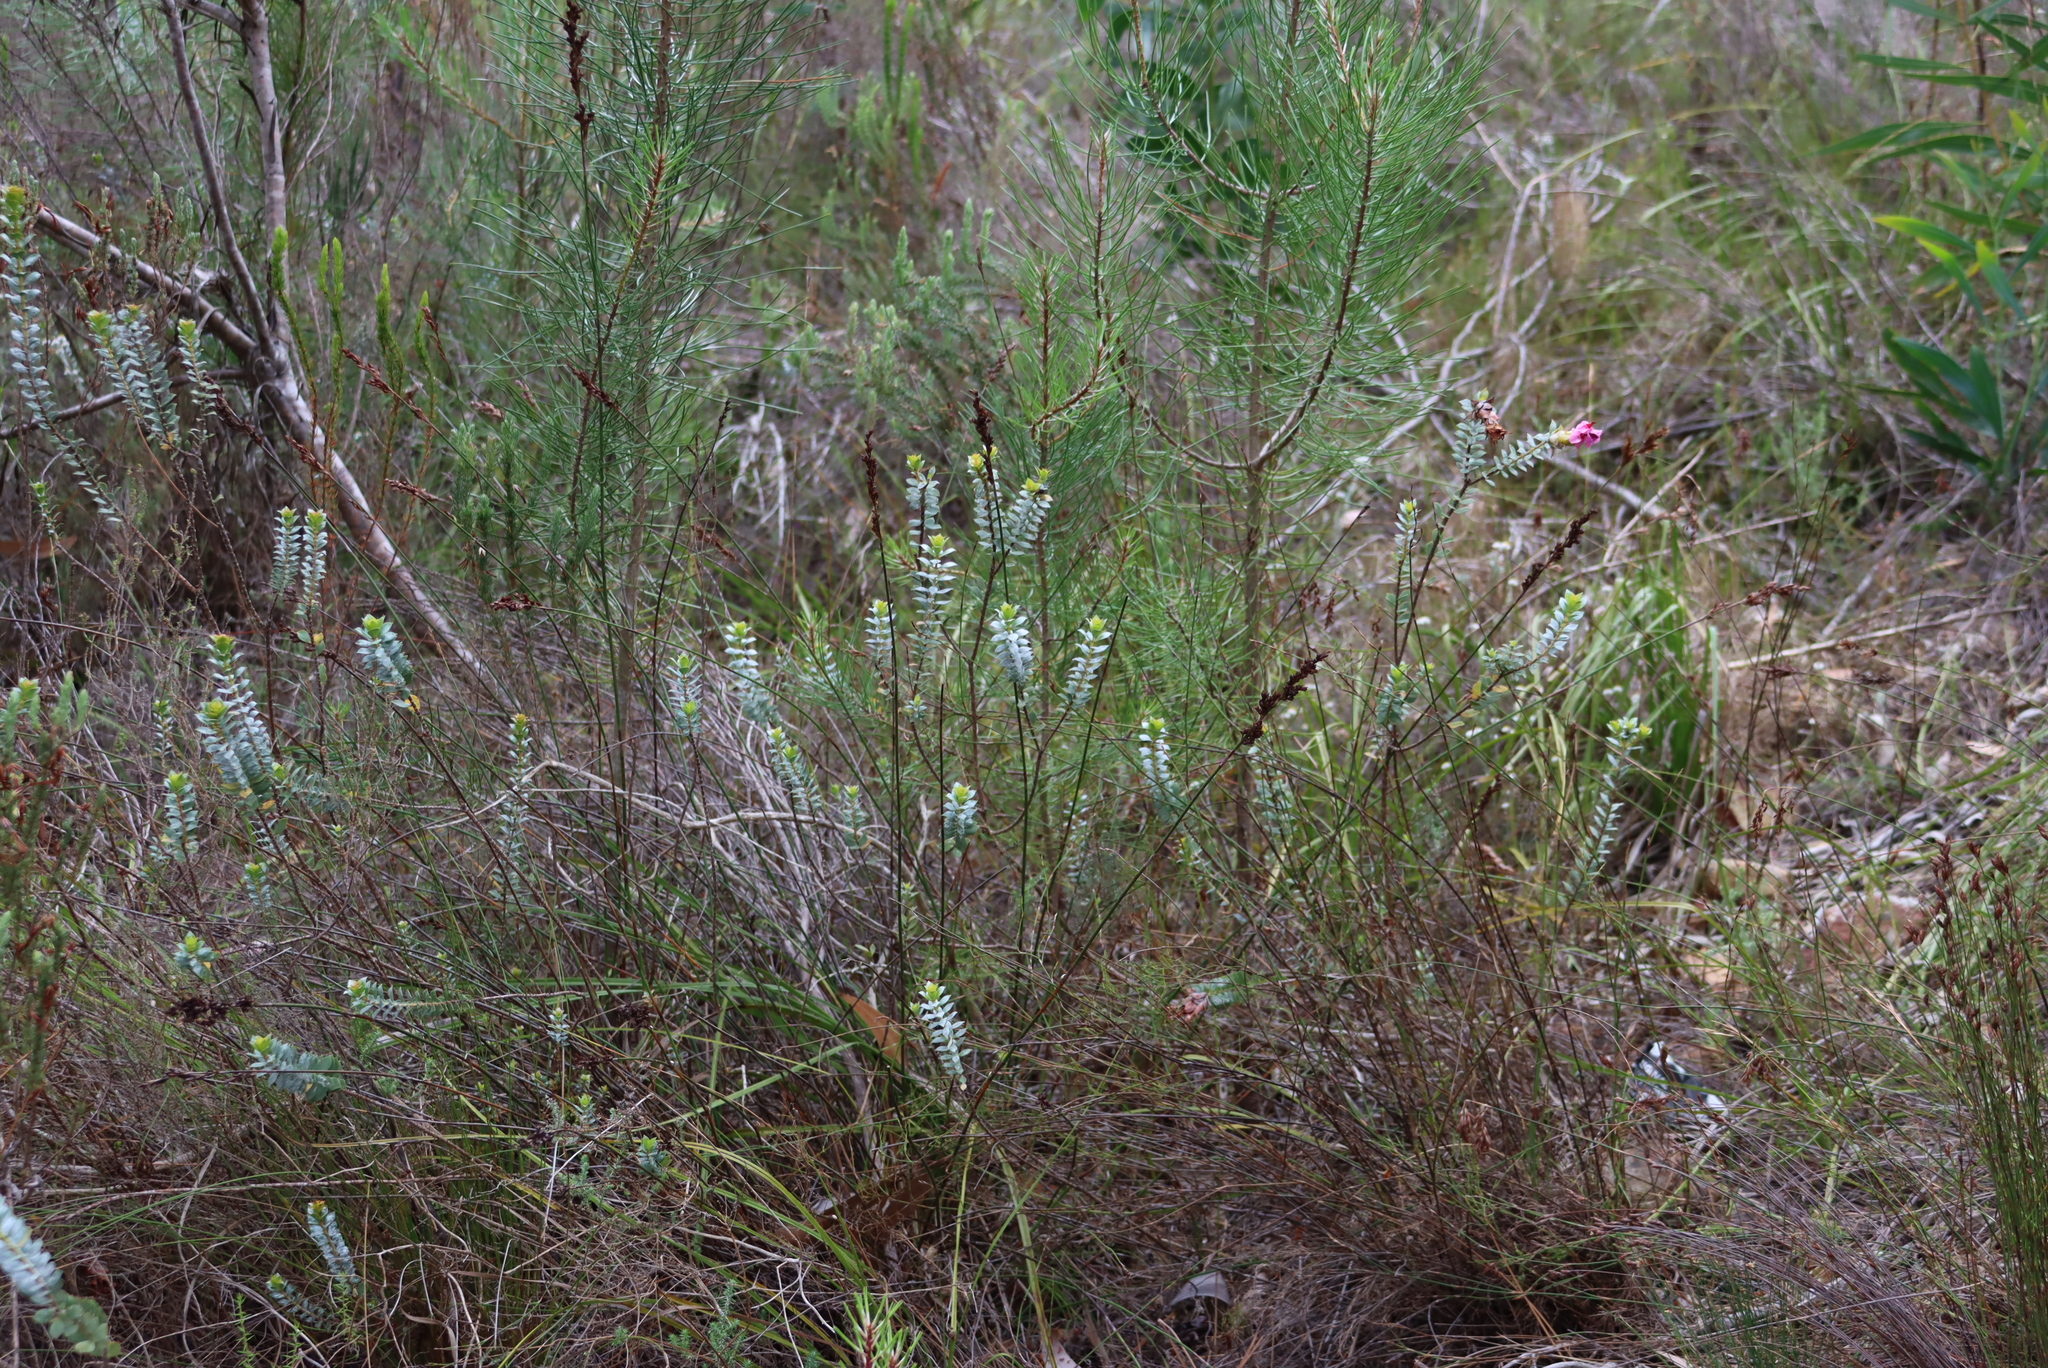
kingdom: Plantae
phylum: Tracheophyta
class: Magnoliopsida
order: Myrtales
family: Penaeaceae
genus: Saltera
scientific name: Saltera sarcocolla
